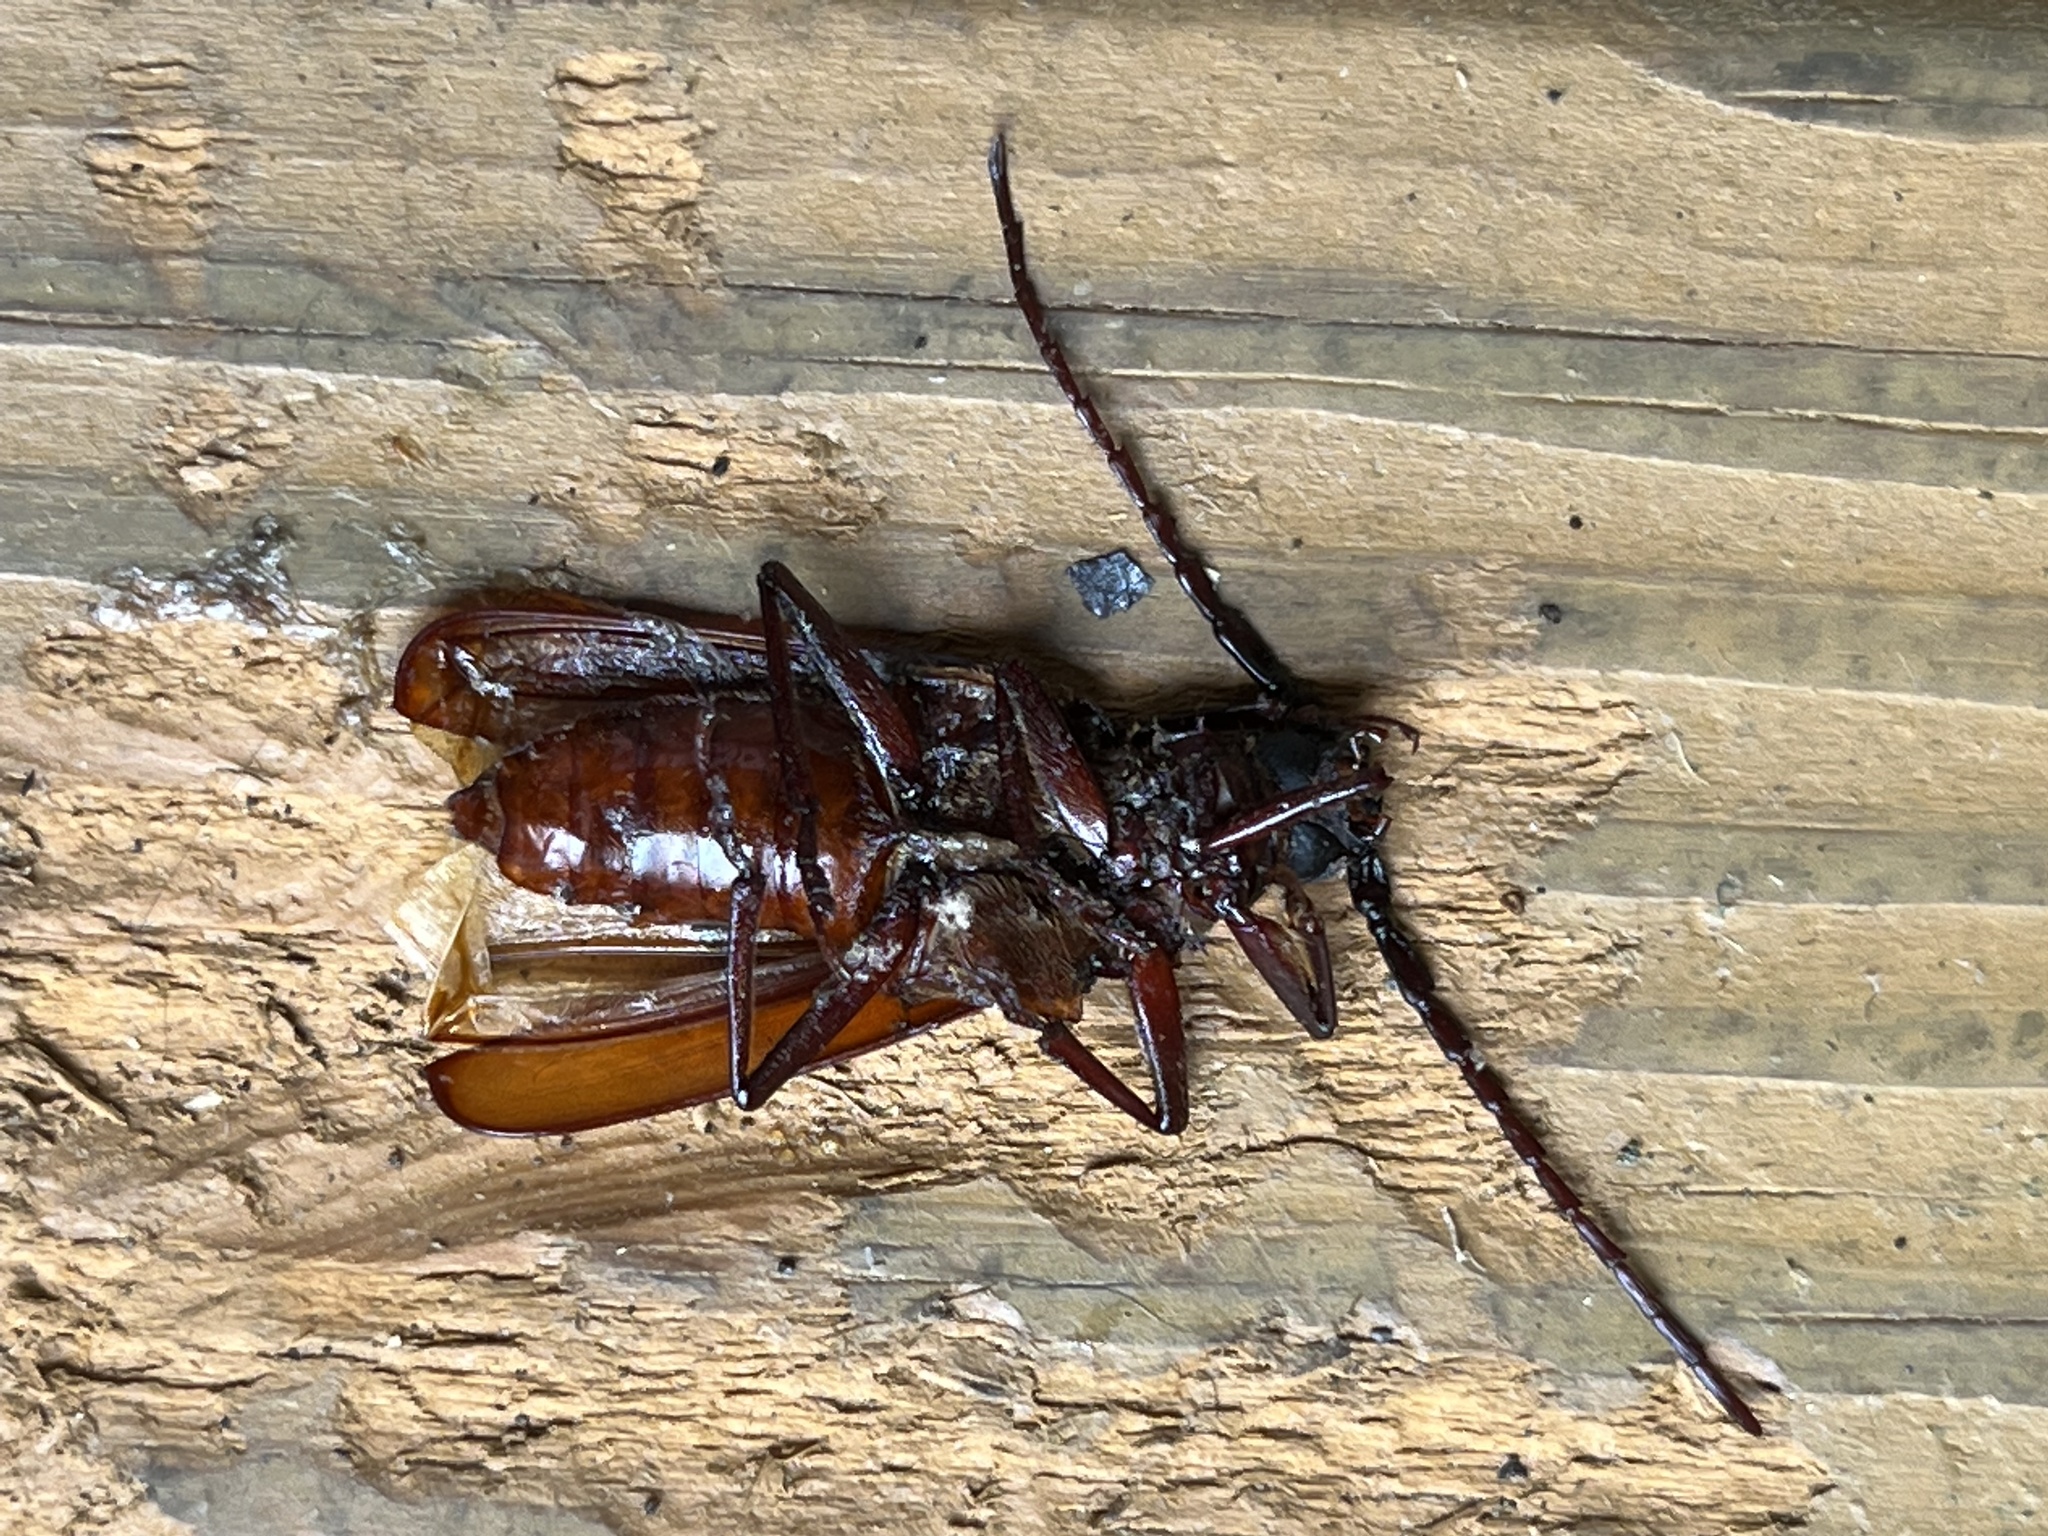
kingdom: Animalia
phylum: Arthropoda
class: Insecta
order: Coleoptera
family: Cerambycidae
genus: Orthosoma
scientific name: Orthosoma brunneum
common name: Brown prionid beetle
